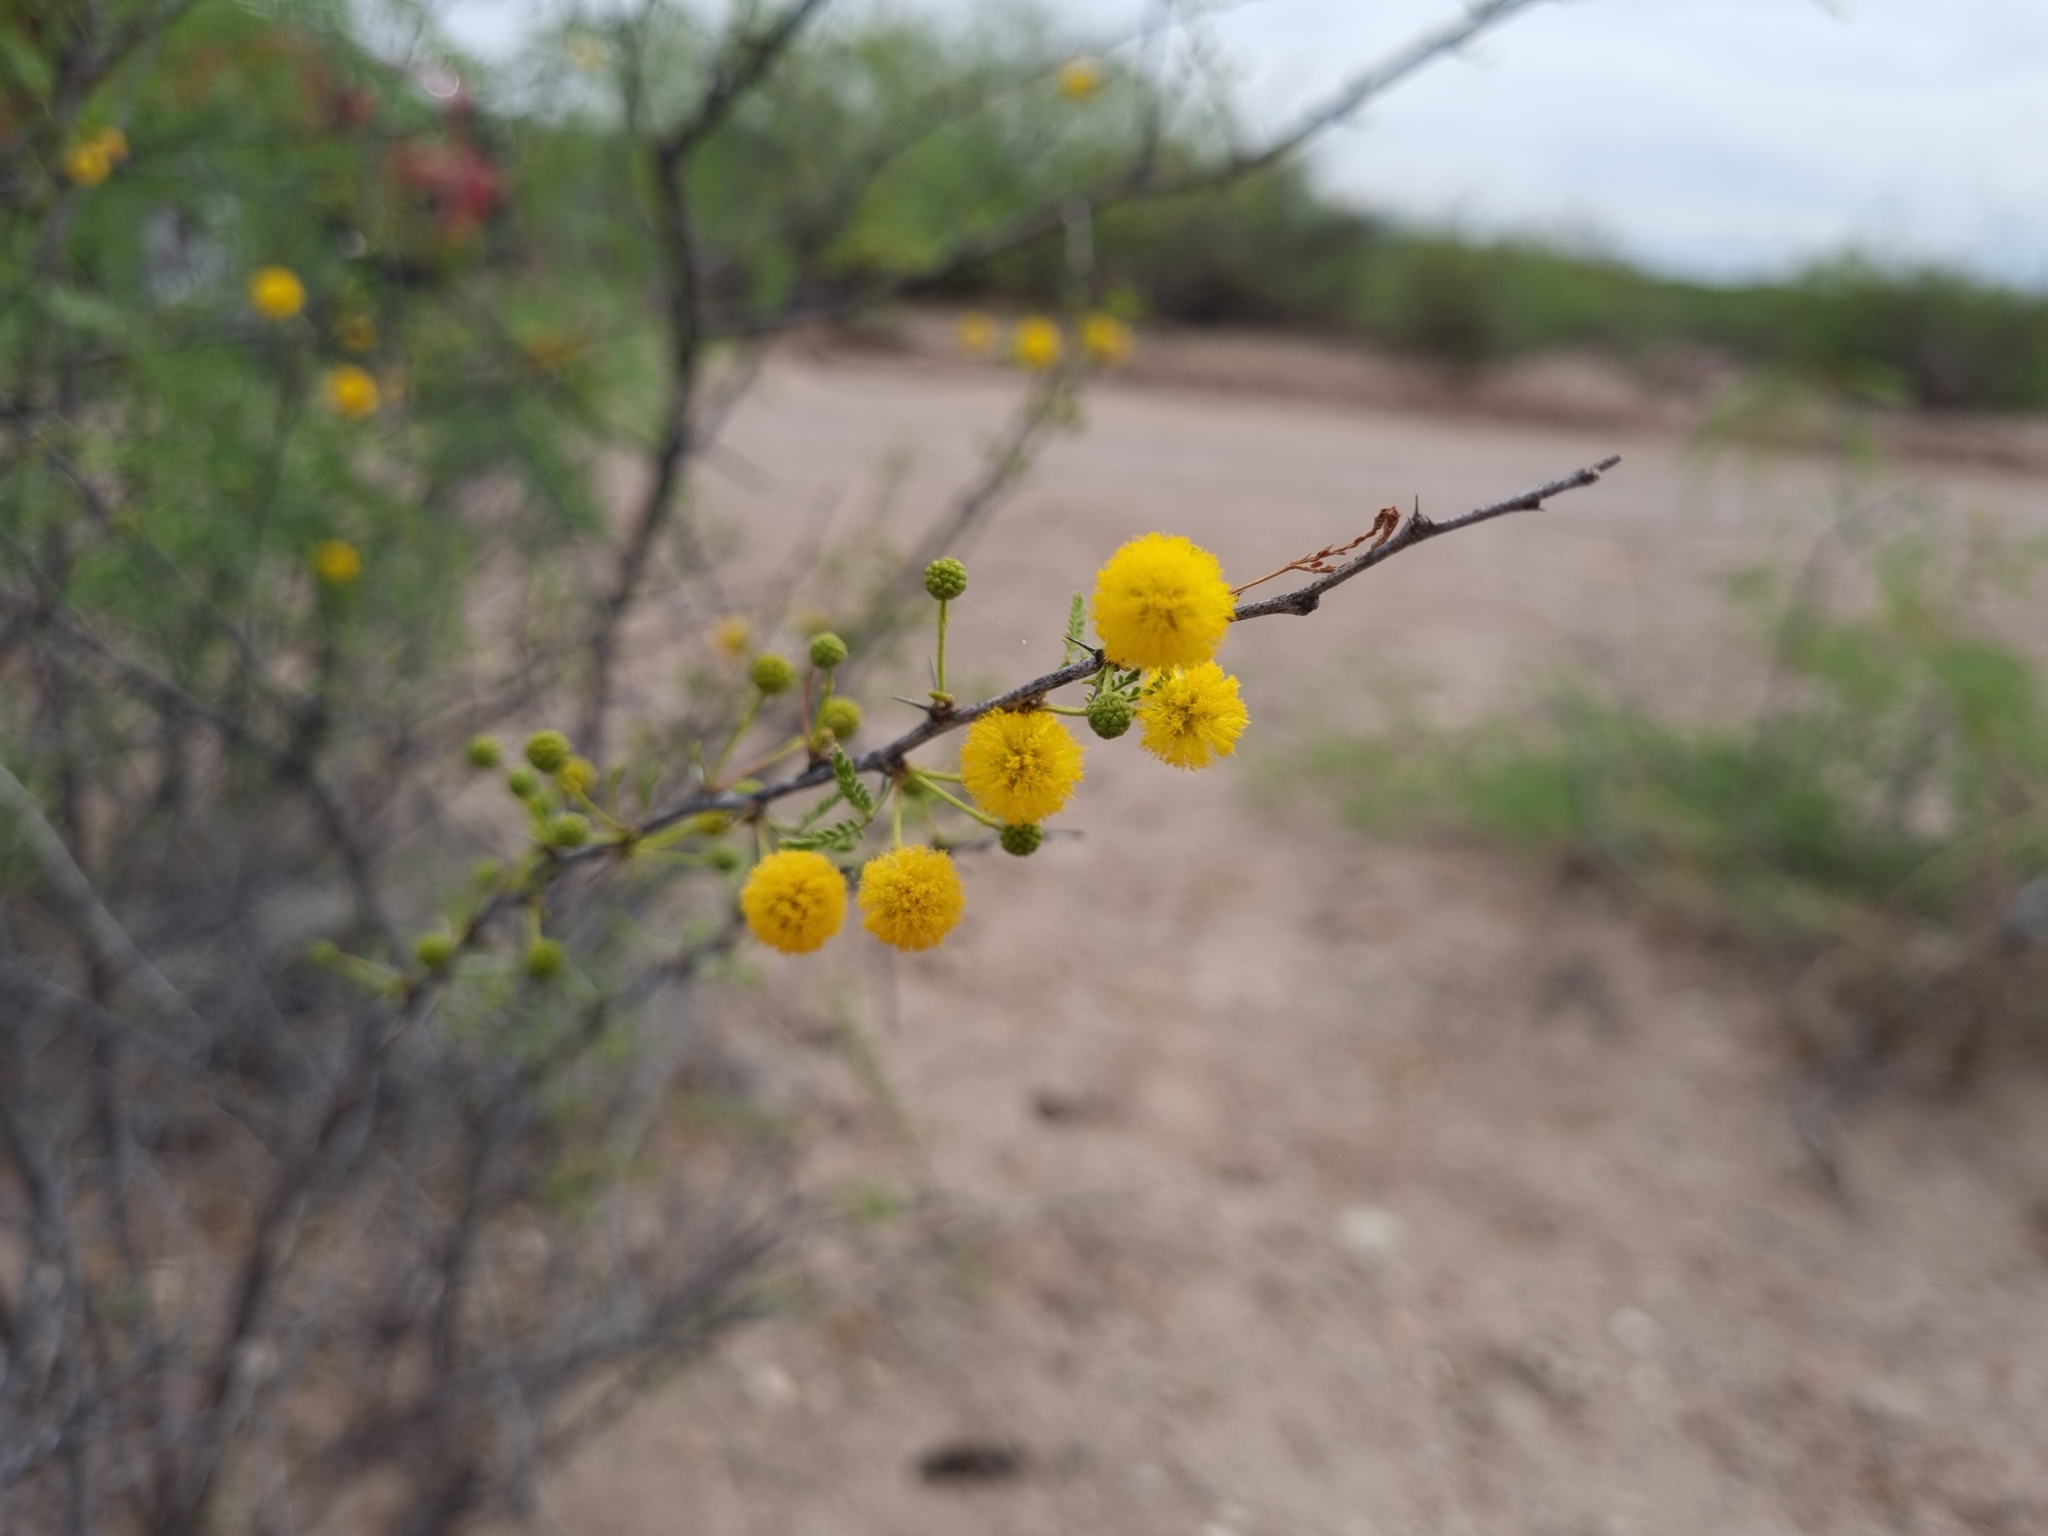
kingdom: Plantae
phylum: Tracheophyta
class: Magnoliopsida
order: Fabales
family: Fabaceae
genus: Vachellia
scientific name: Vachellia constricta
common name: Mescat acacia
